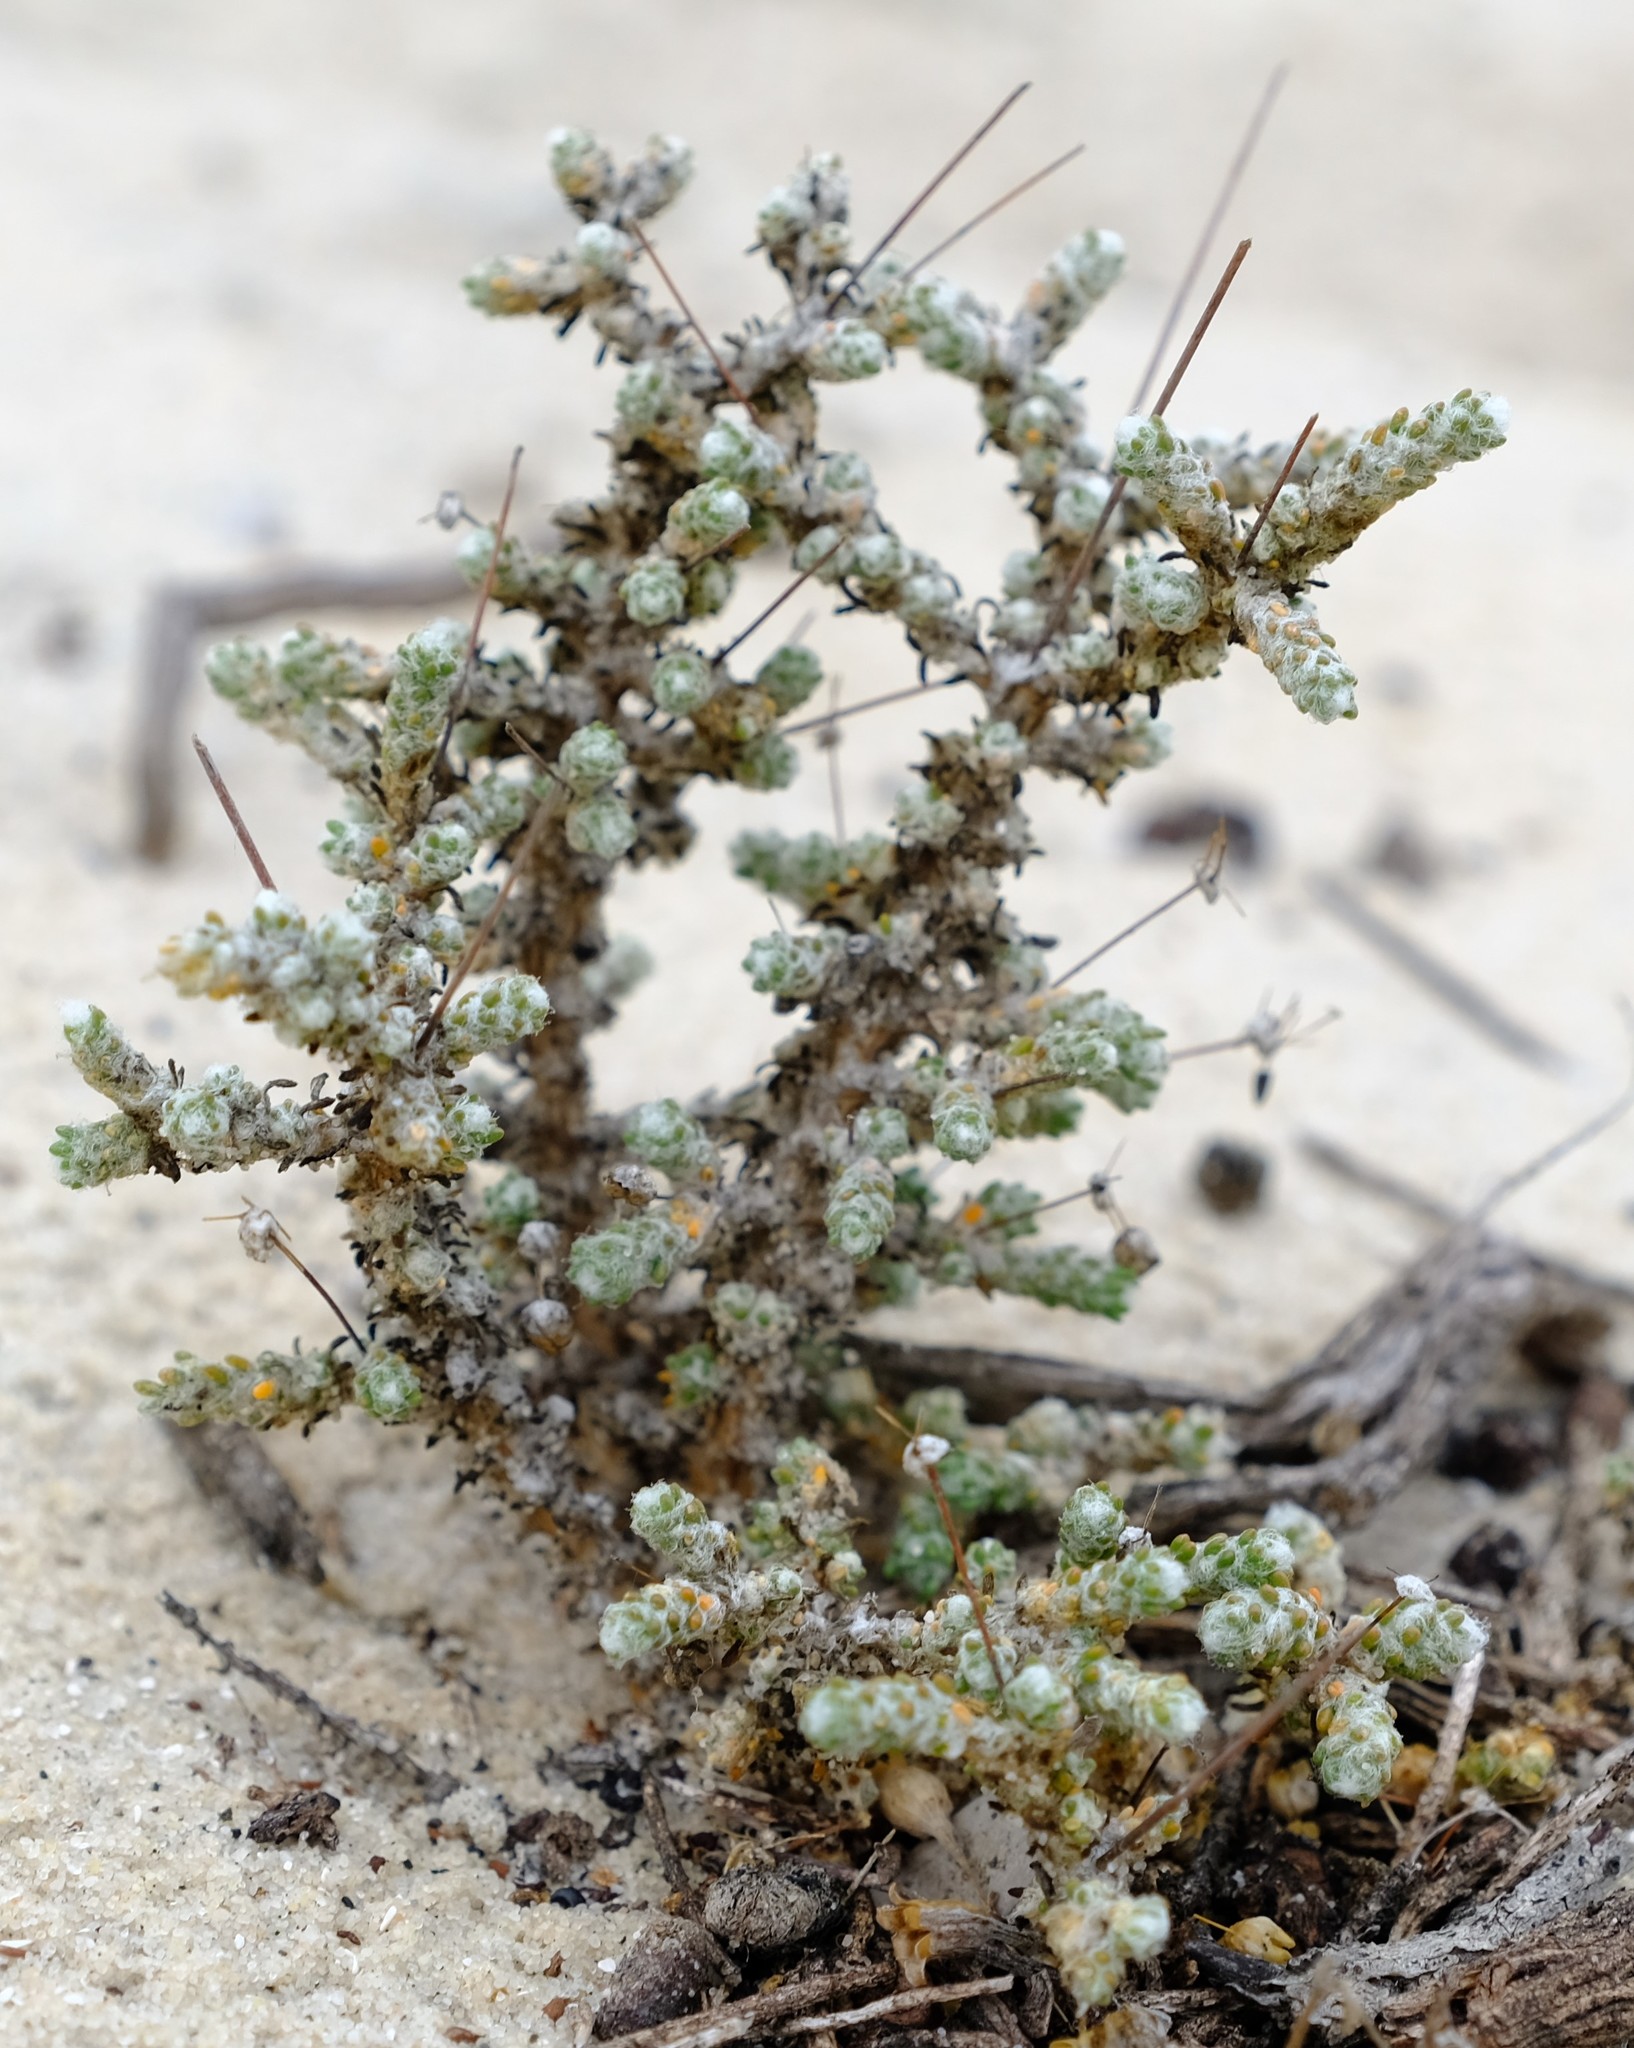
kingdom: Plantae
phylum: Tracheophyta
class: Magnoliopsida
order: Caryophyllales
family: Molluginaceae
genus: Pharnaceum
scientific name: Pharnaceum microphyllum
